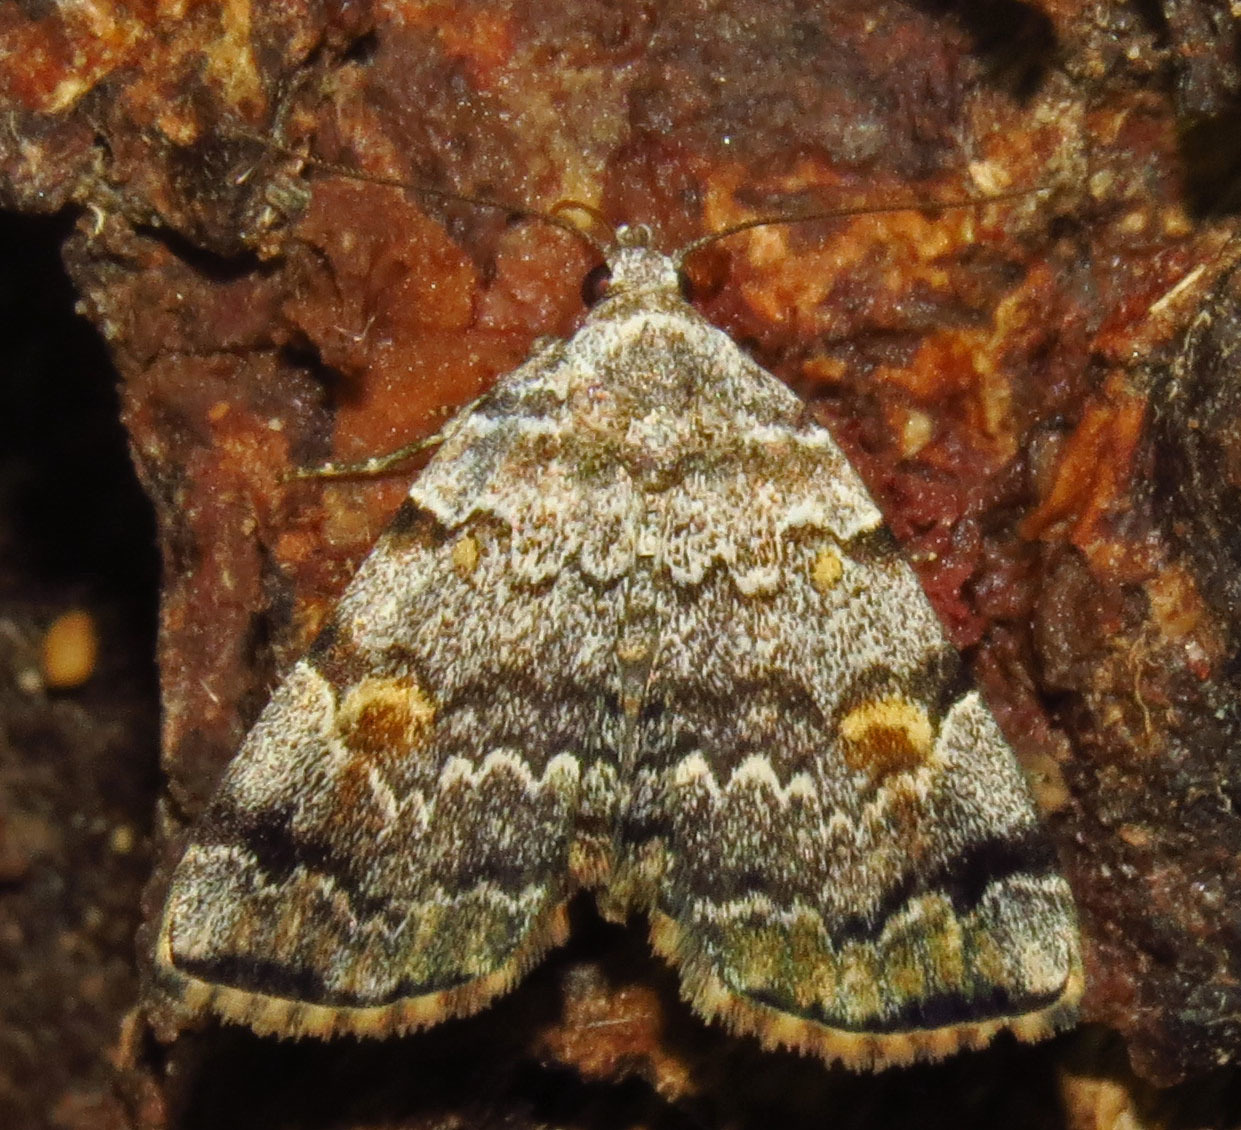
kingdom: Animalia
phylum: Arthropoda
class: Insecta
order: Lepidoptera
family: Erebidae
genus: Idia
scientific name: Idia americalis
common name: American idia moth
